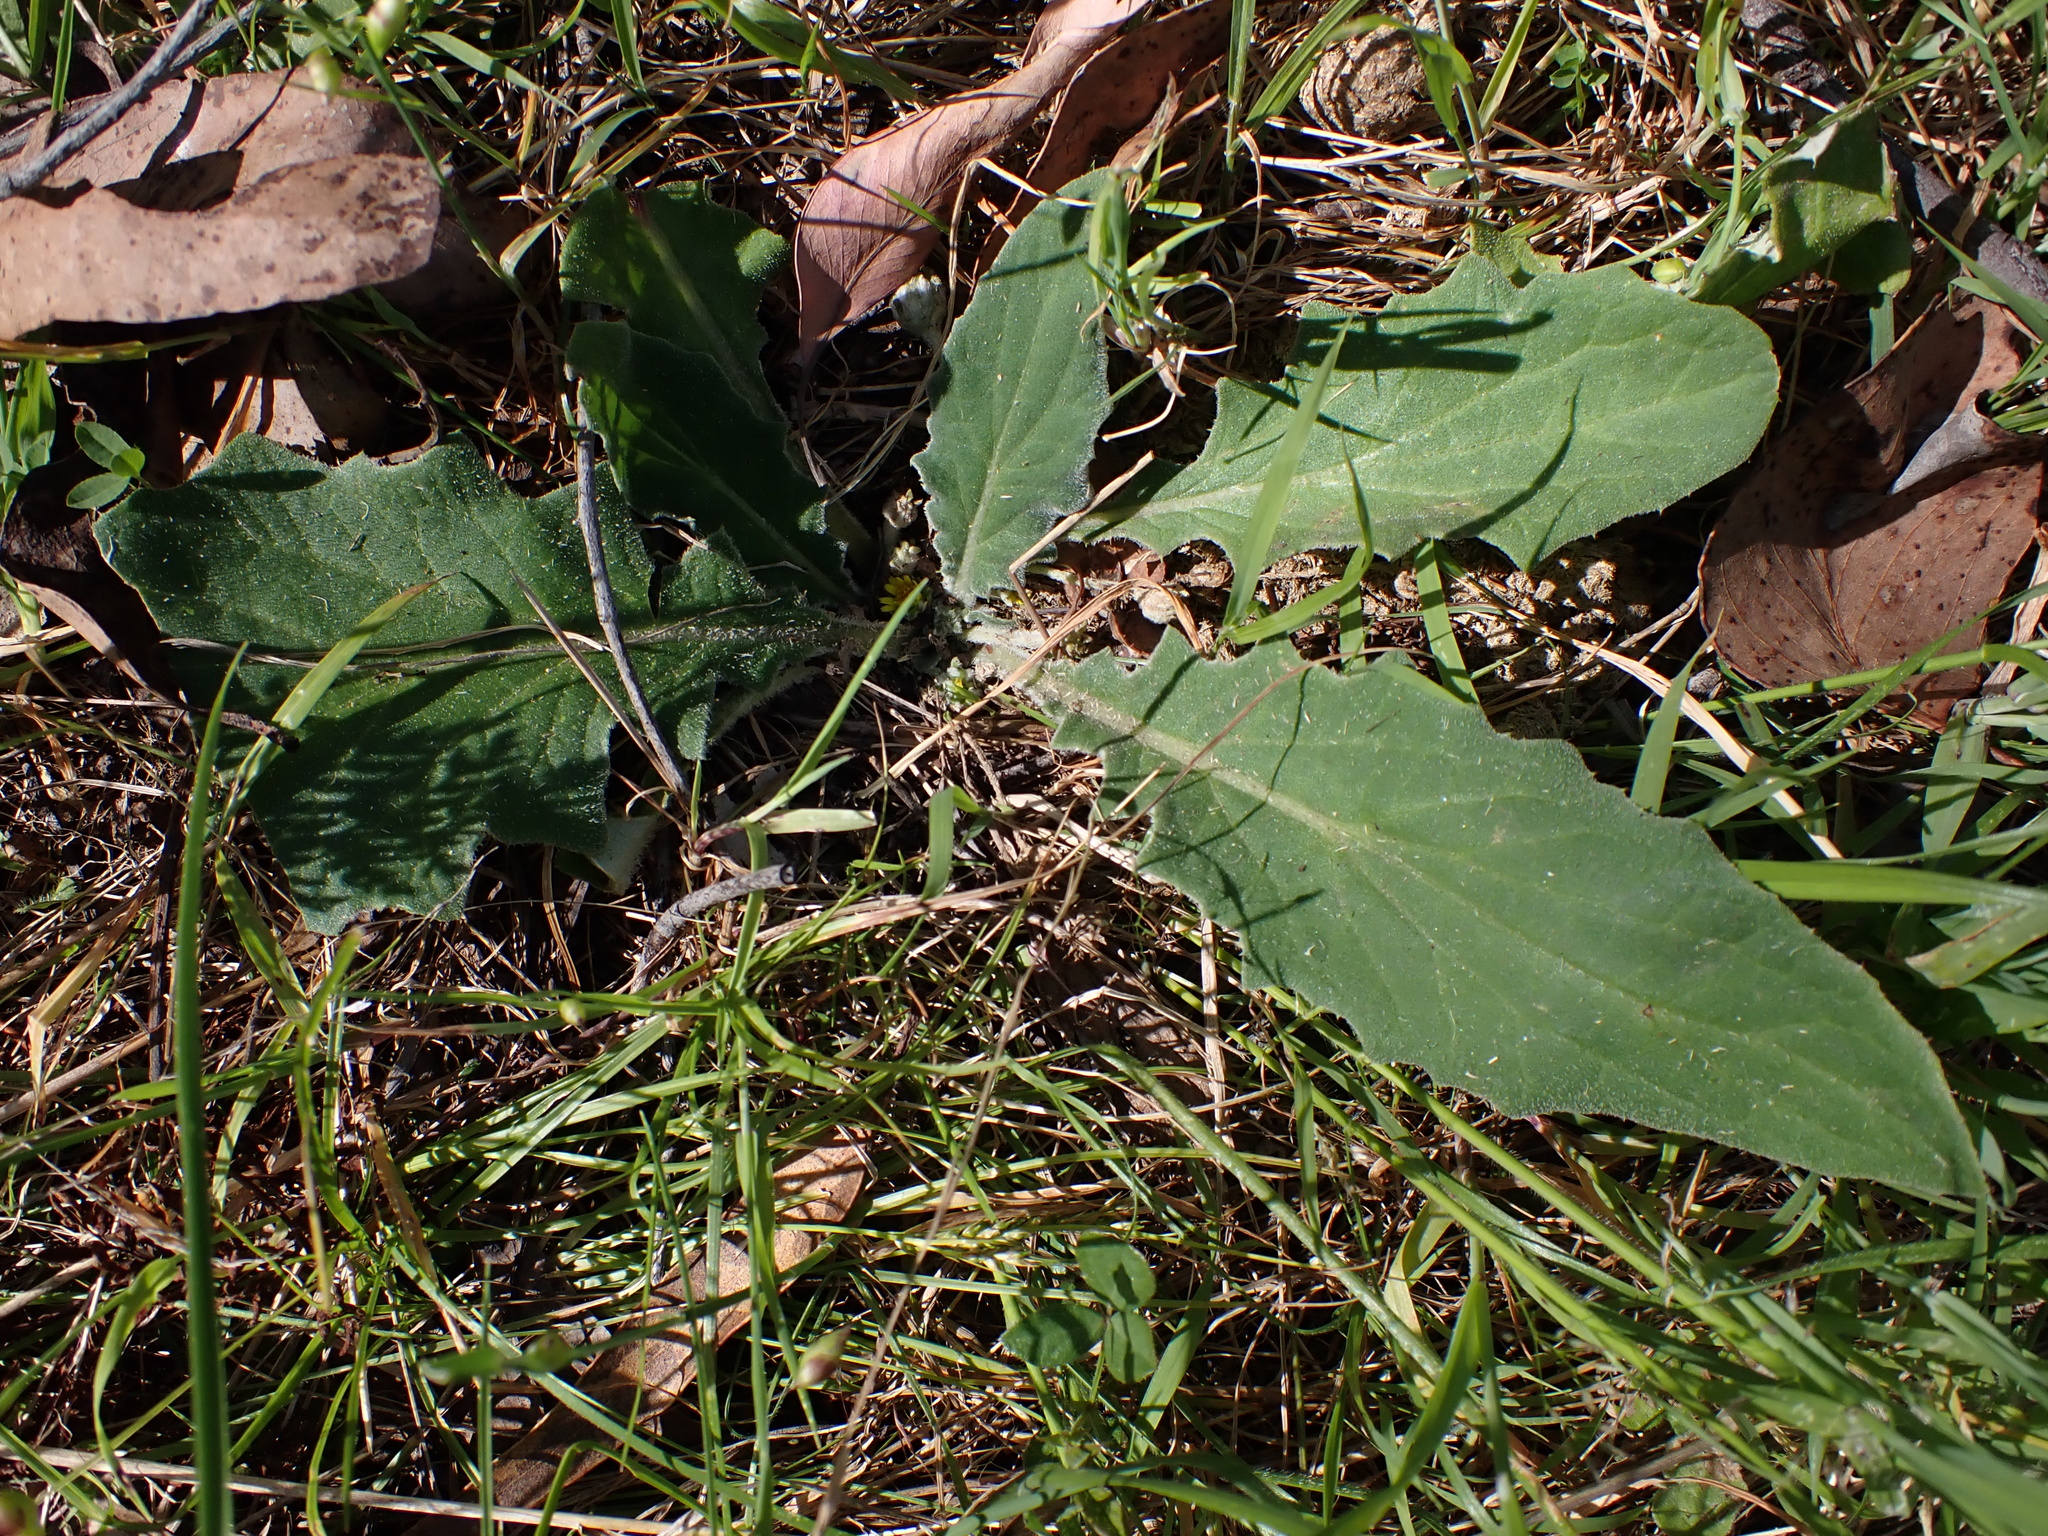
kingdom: Plantae
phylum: Tracheophyta
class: Magnoliopsida
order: Asterales
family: Asteraceae
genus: Cymbonotus
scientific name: Cymbonotus preissianus
